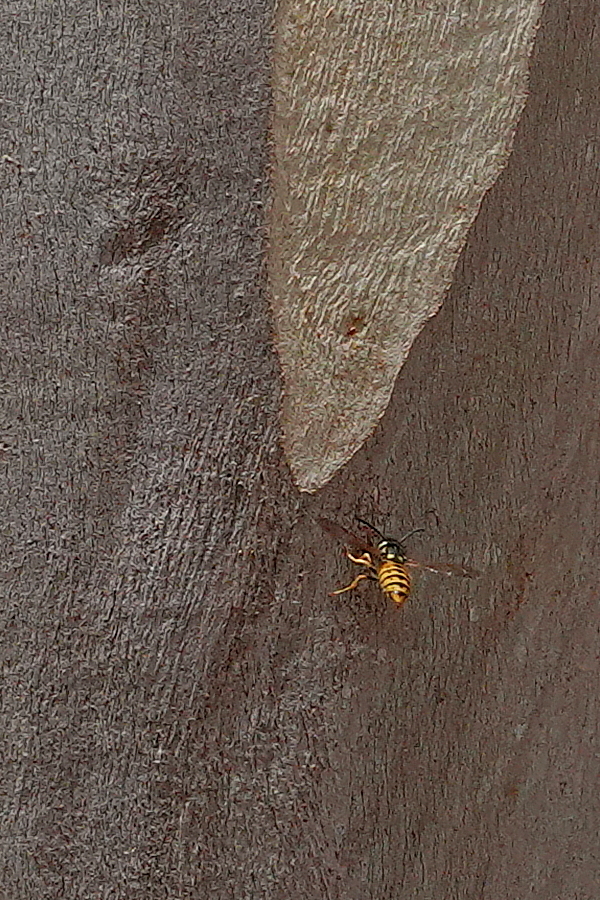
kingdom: Animalia
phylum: Arthropoda
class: Insecta
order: Hymenoptera
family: Vespidae
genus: Vespula
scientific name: Vespula germanica
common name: German wasp
